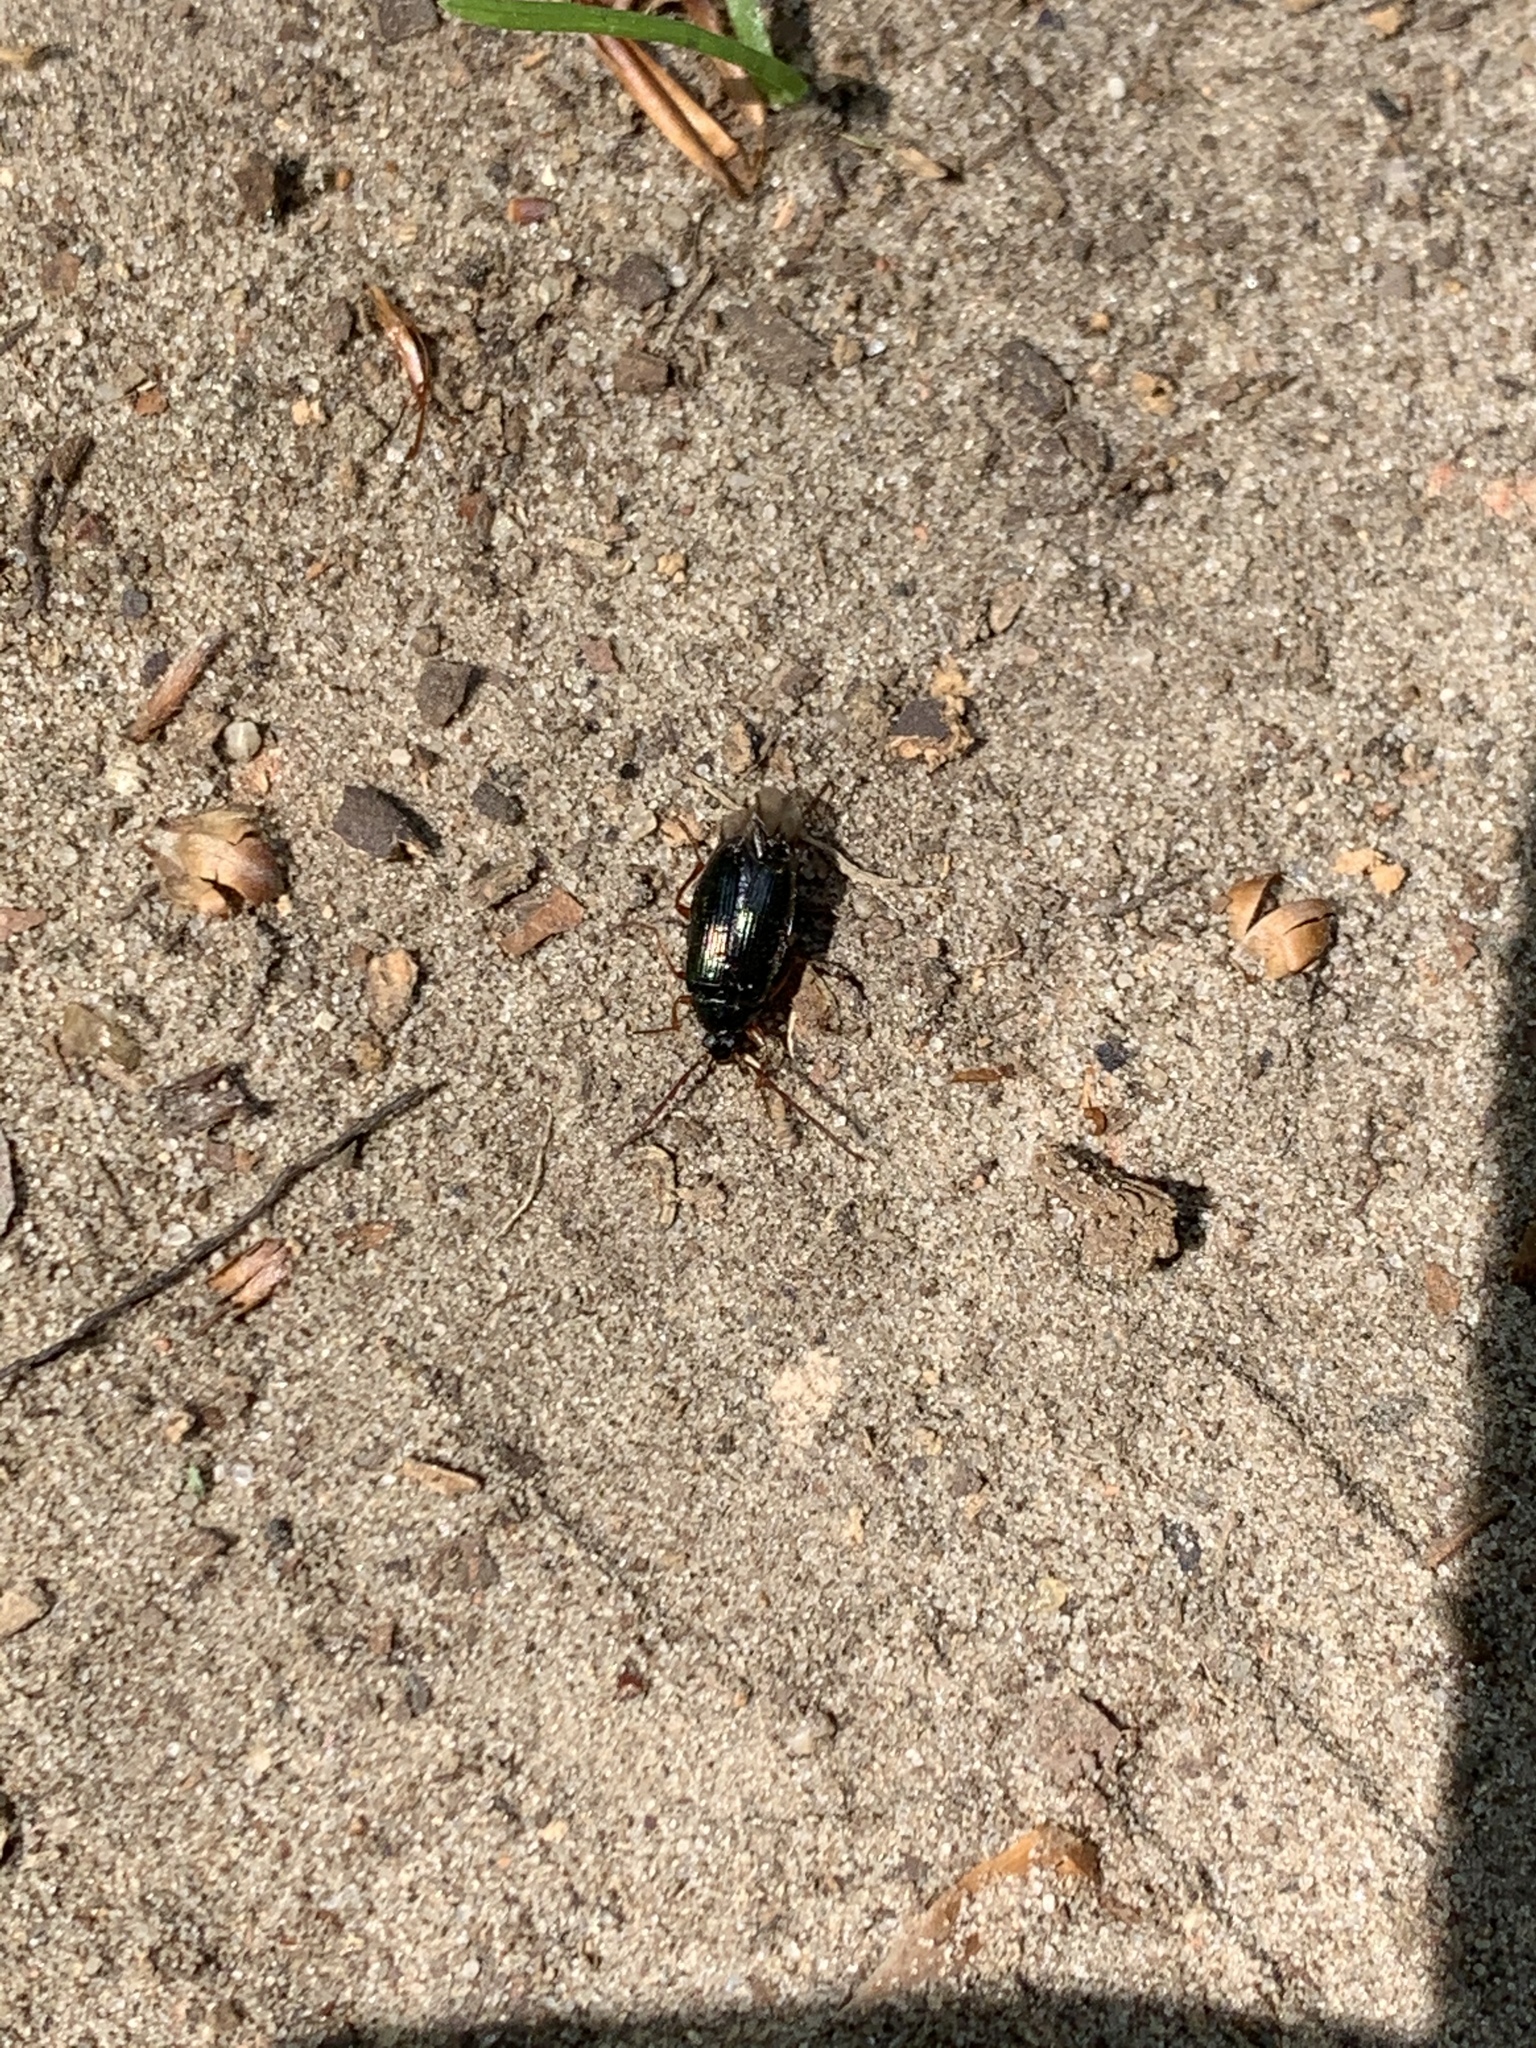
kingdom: Animalia
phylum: Arthropoda
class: Insecta
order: Coleoptera
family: Tenebrionidae
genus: Gonodera
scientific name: Gonodera luperus
